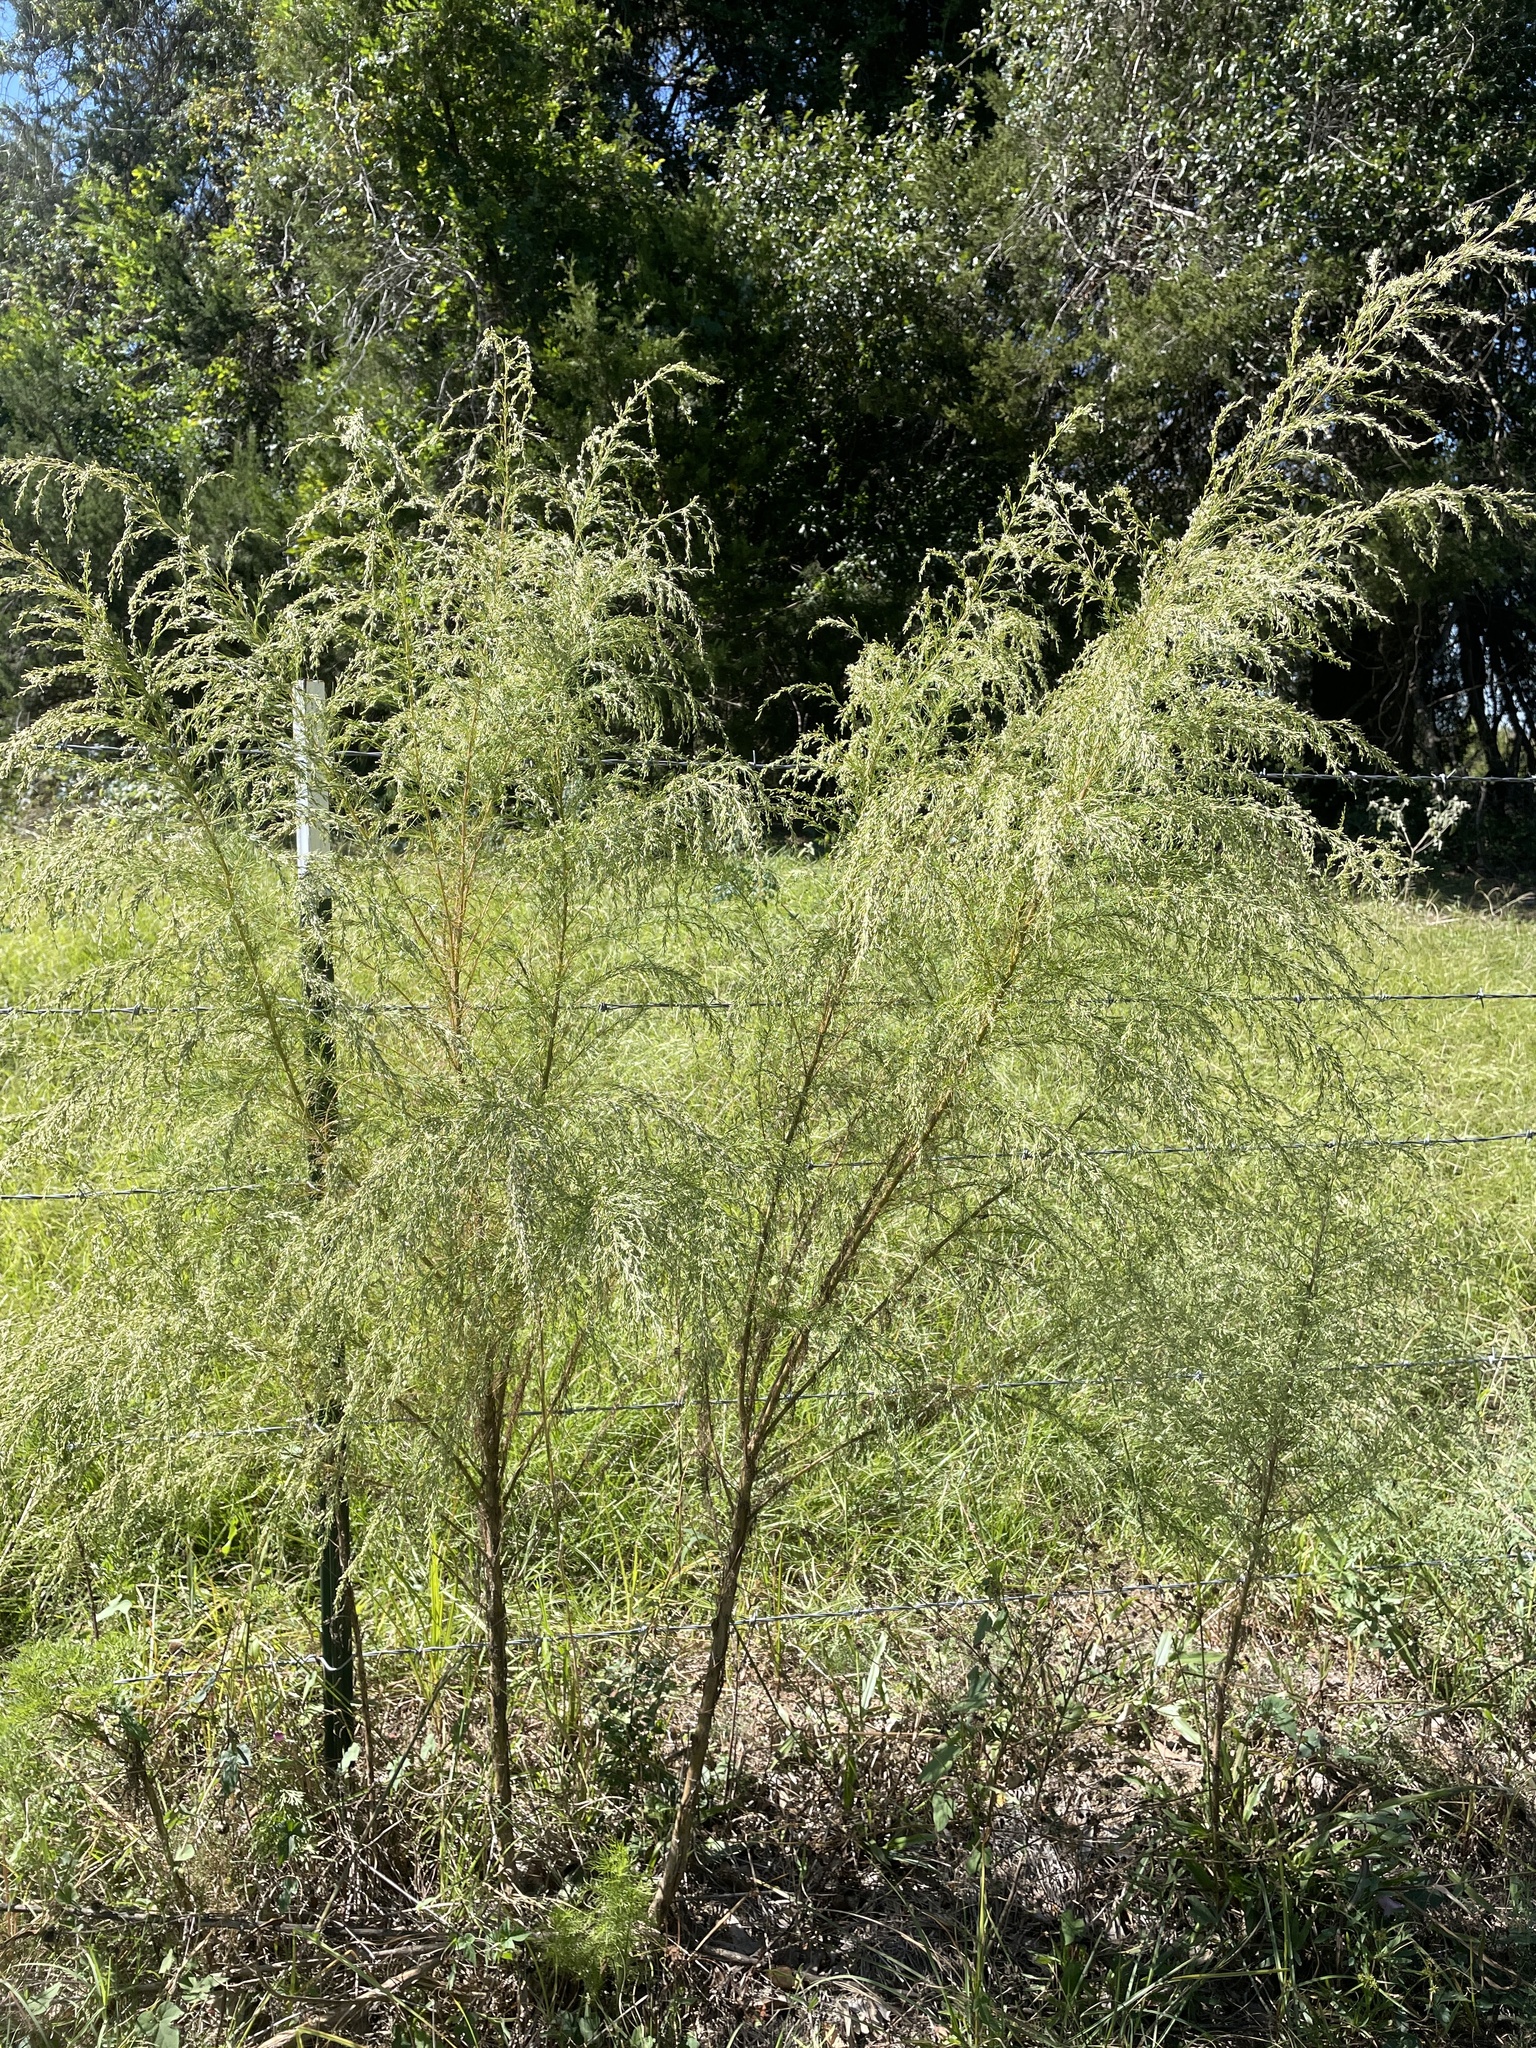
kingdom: Plantae
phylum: Tracheophyta
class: Magnoliopsida
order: Asterales
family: Asteraceae
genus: Eupatorium
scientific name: Eupatorium capillifolium
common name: Dog-fennel
